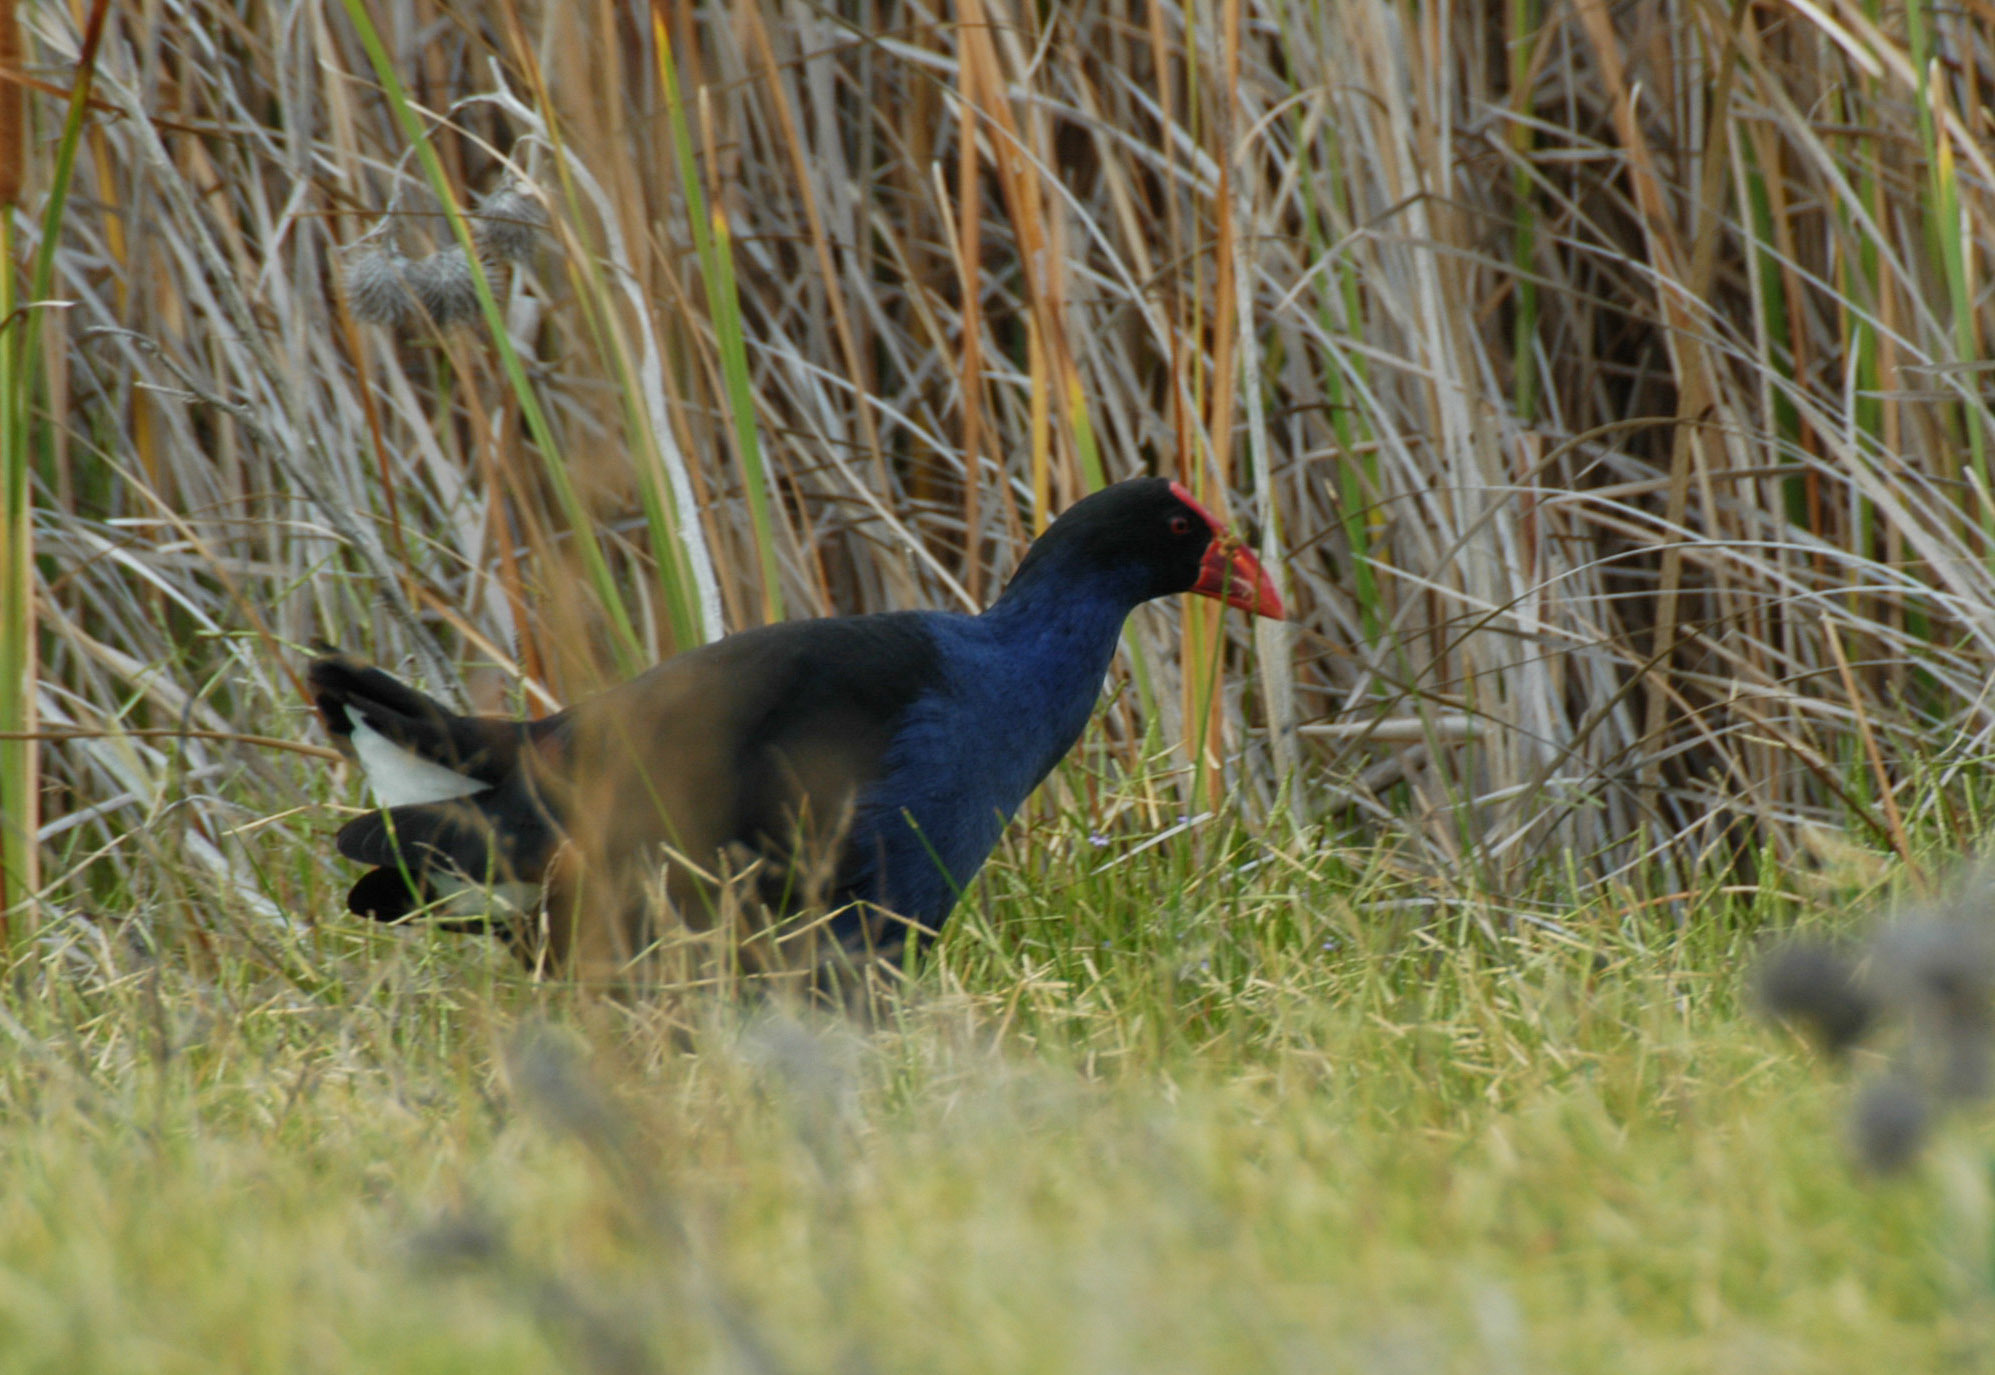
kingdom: Animalia
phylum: Chordata
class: Aves
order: Gruiformes
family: Rallidae
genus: Porphyrio
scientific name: Porphyrio melanotus
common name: Australasian swamphen
